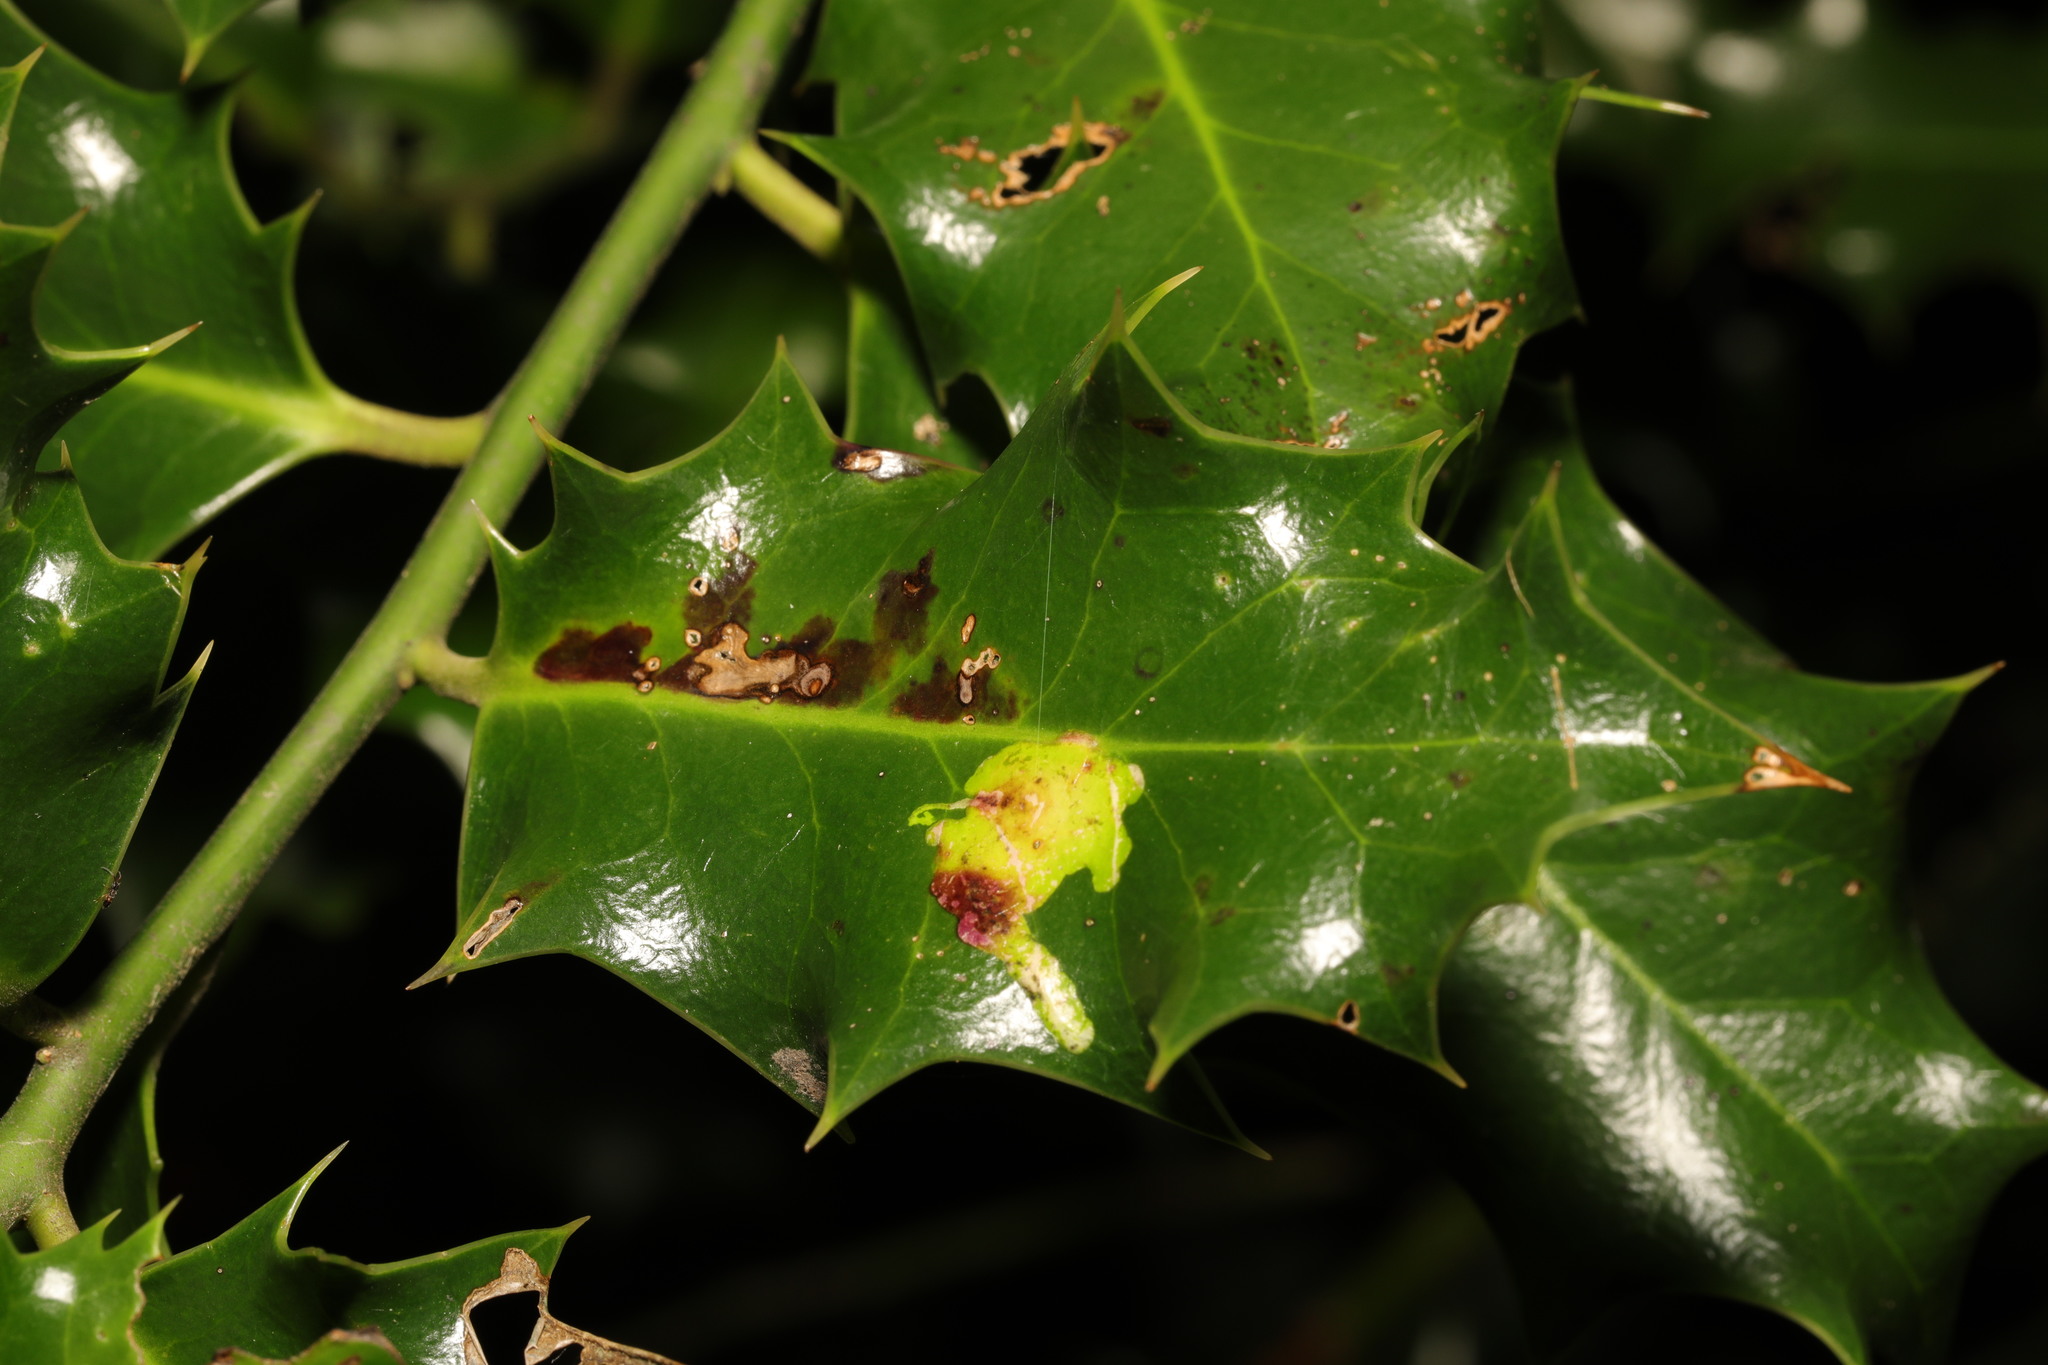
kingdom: Animalia
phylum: Arthropoda
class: Insecta
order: Diptera
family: Agromyzidae
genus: Phytomyza
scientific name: Phytomyza ilicis
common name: Holly leafminer
